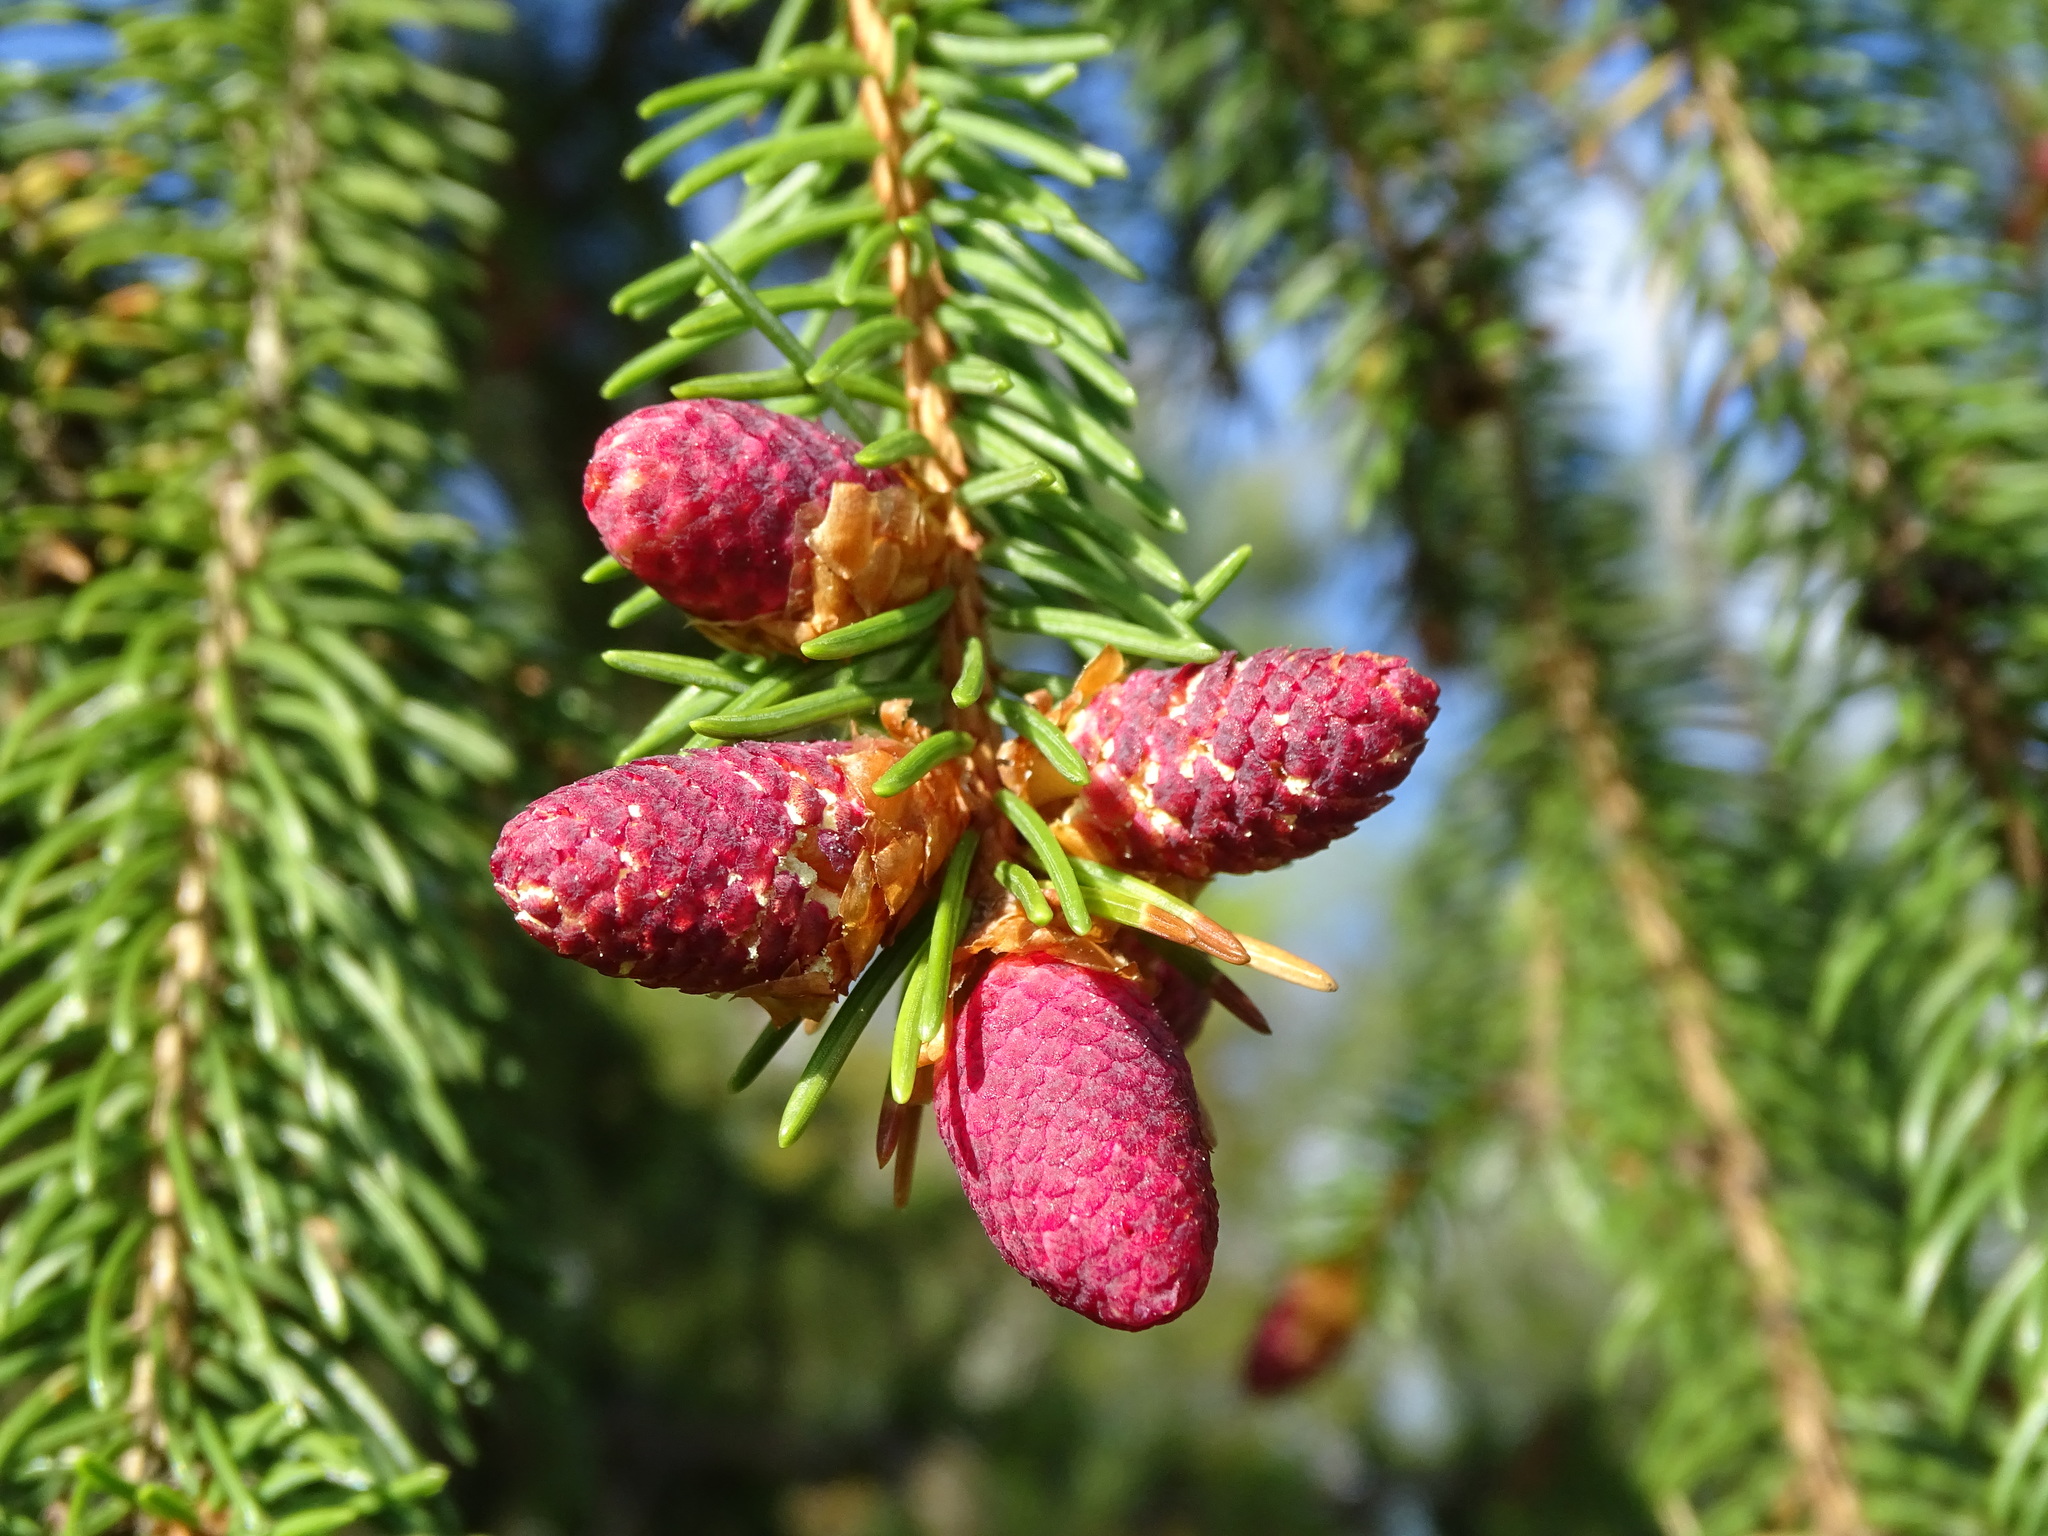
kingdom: Plantae
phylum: Tracheophyta
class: Pinopsida
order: Pinales
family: Pinaceae
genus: Picea
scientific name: Picea abies
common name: Norway spruce
